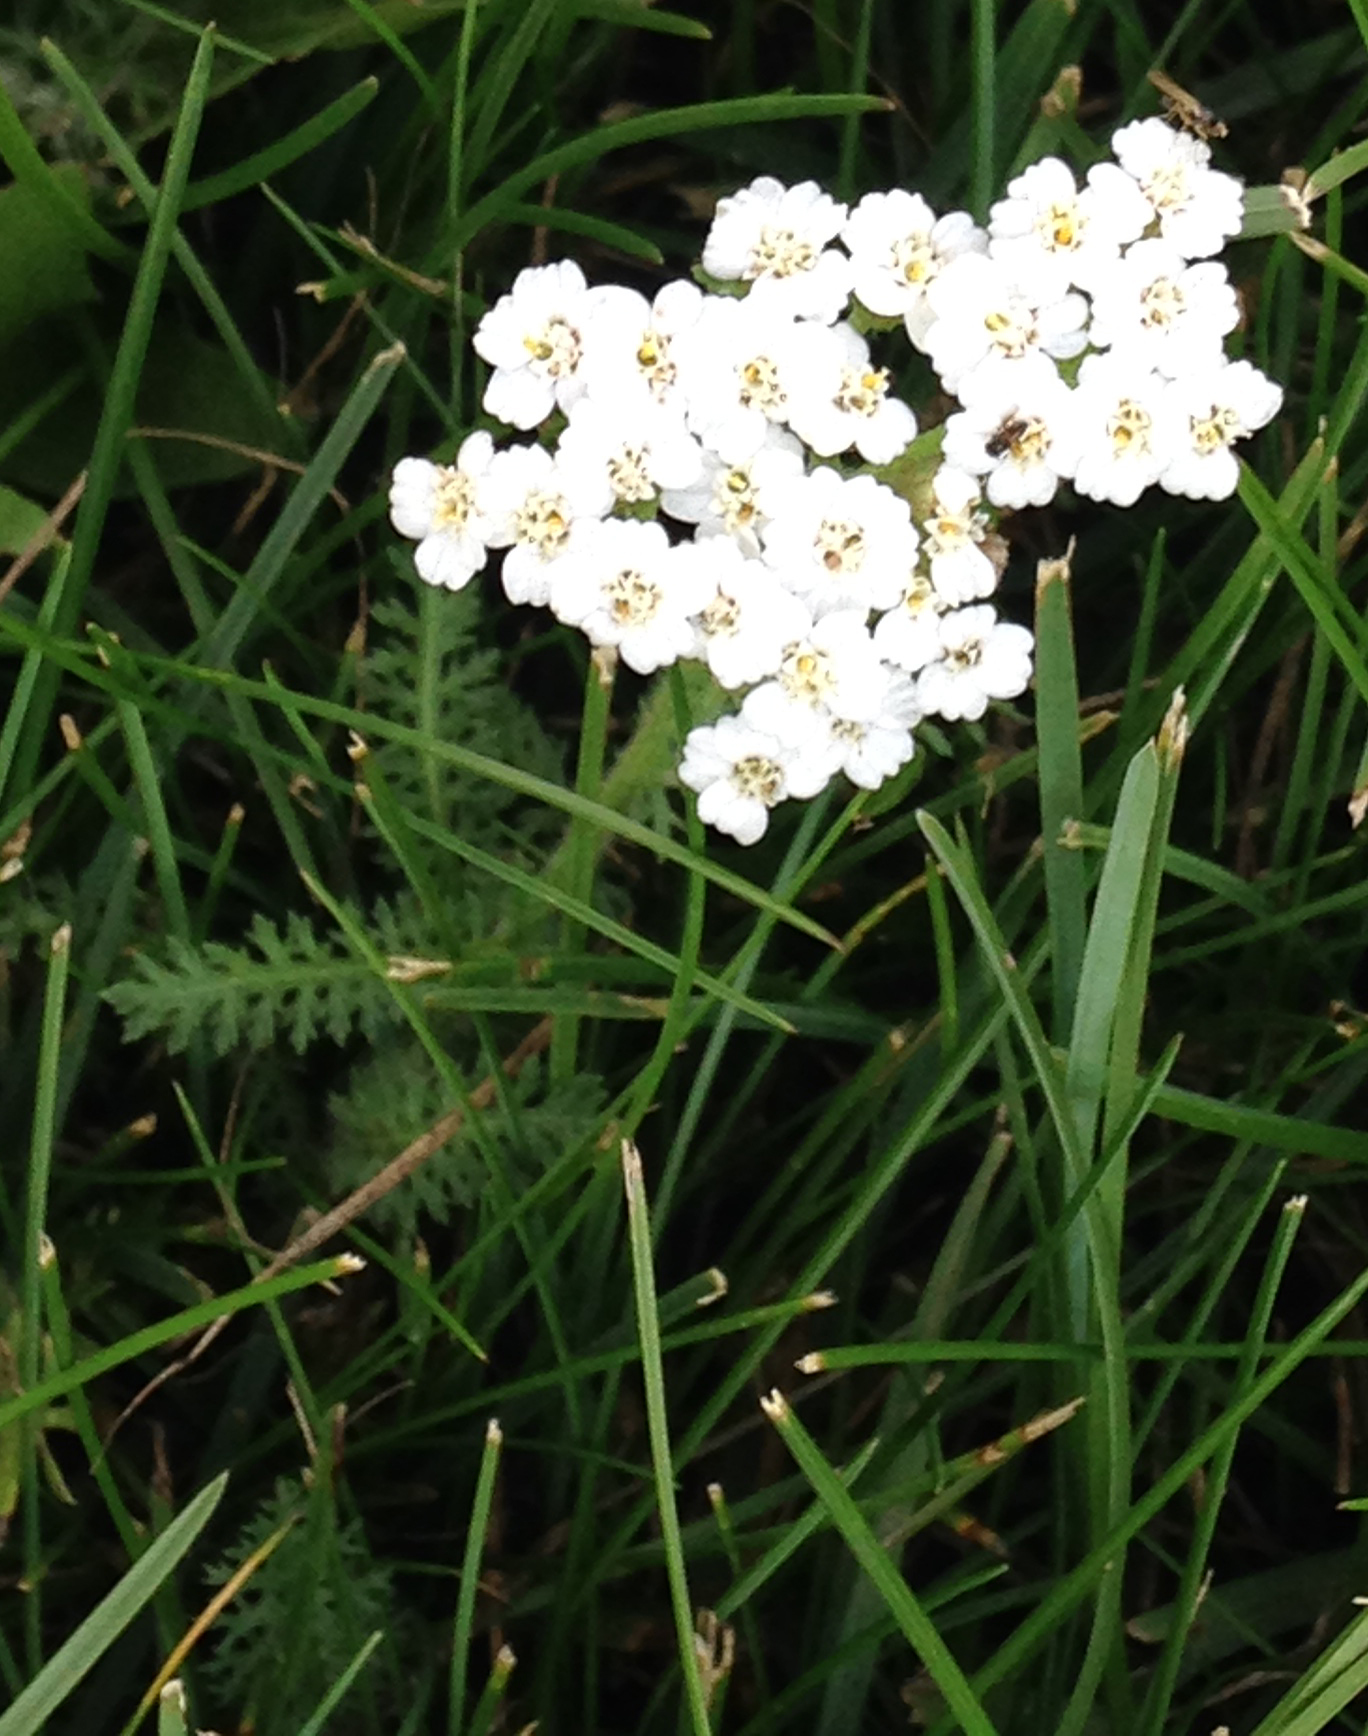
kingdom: Plantae
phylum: Tracheophyta
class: Magnoliopsida
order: Asterales
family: Asteraceae
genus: Achillea
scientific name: Achillea millefolium
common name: Yarrow
